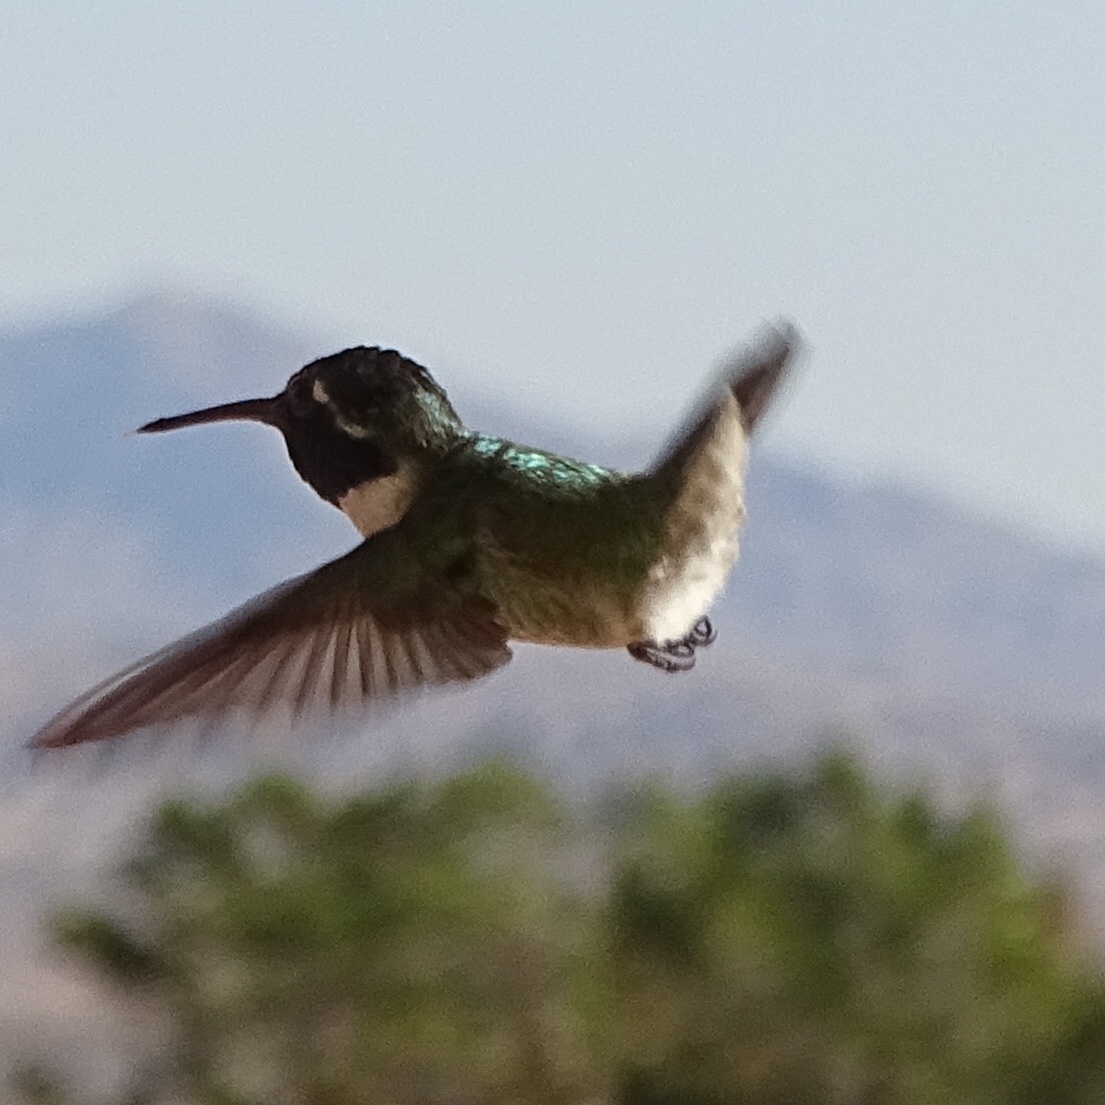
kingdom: Animalia
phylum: Chordata
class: Aves
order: Apodiformes
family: Trochilidae
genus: Calypte
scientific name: Calypte costae
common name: Costa's hummingbird
